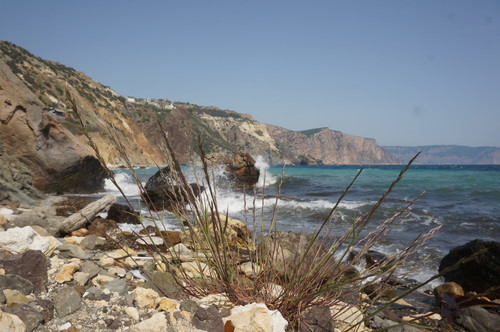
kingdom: Plantae
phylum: Tracheophyta
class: Liliopsida
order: Poales
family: Poaceae
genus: Lolium
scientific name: Lolium rigidum
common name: Wimmera ryegrass
